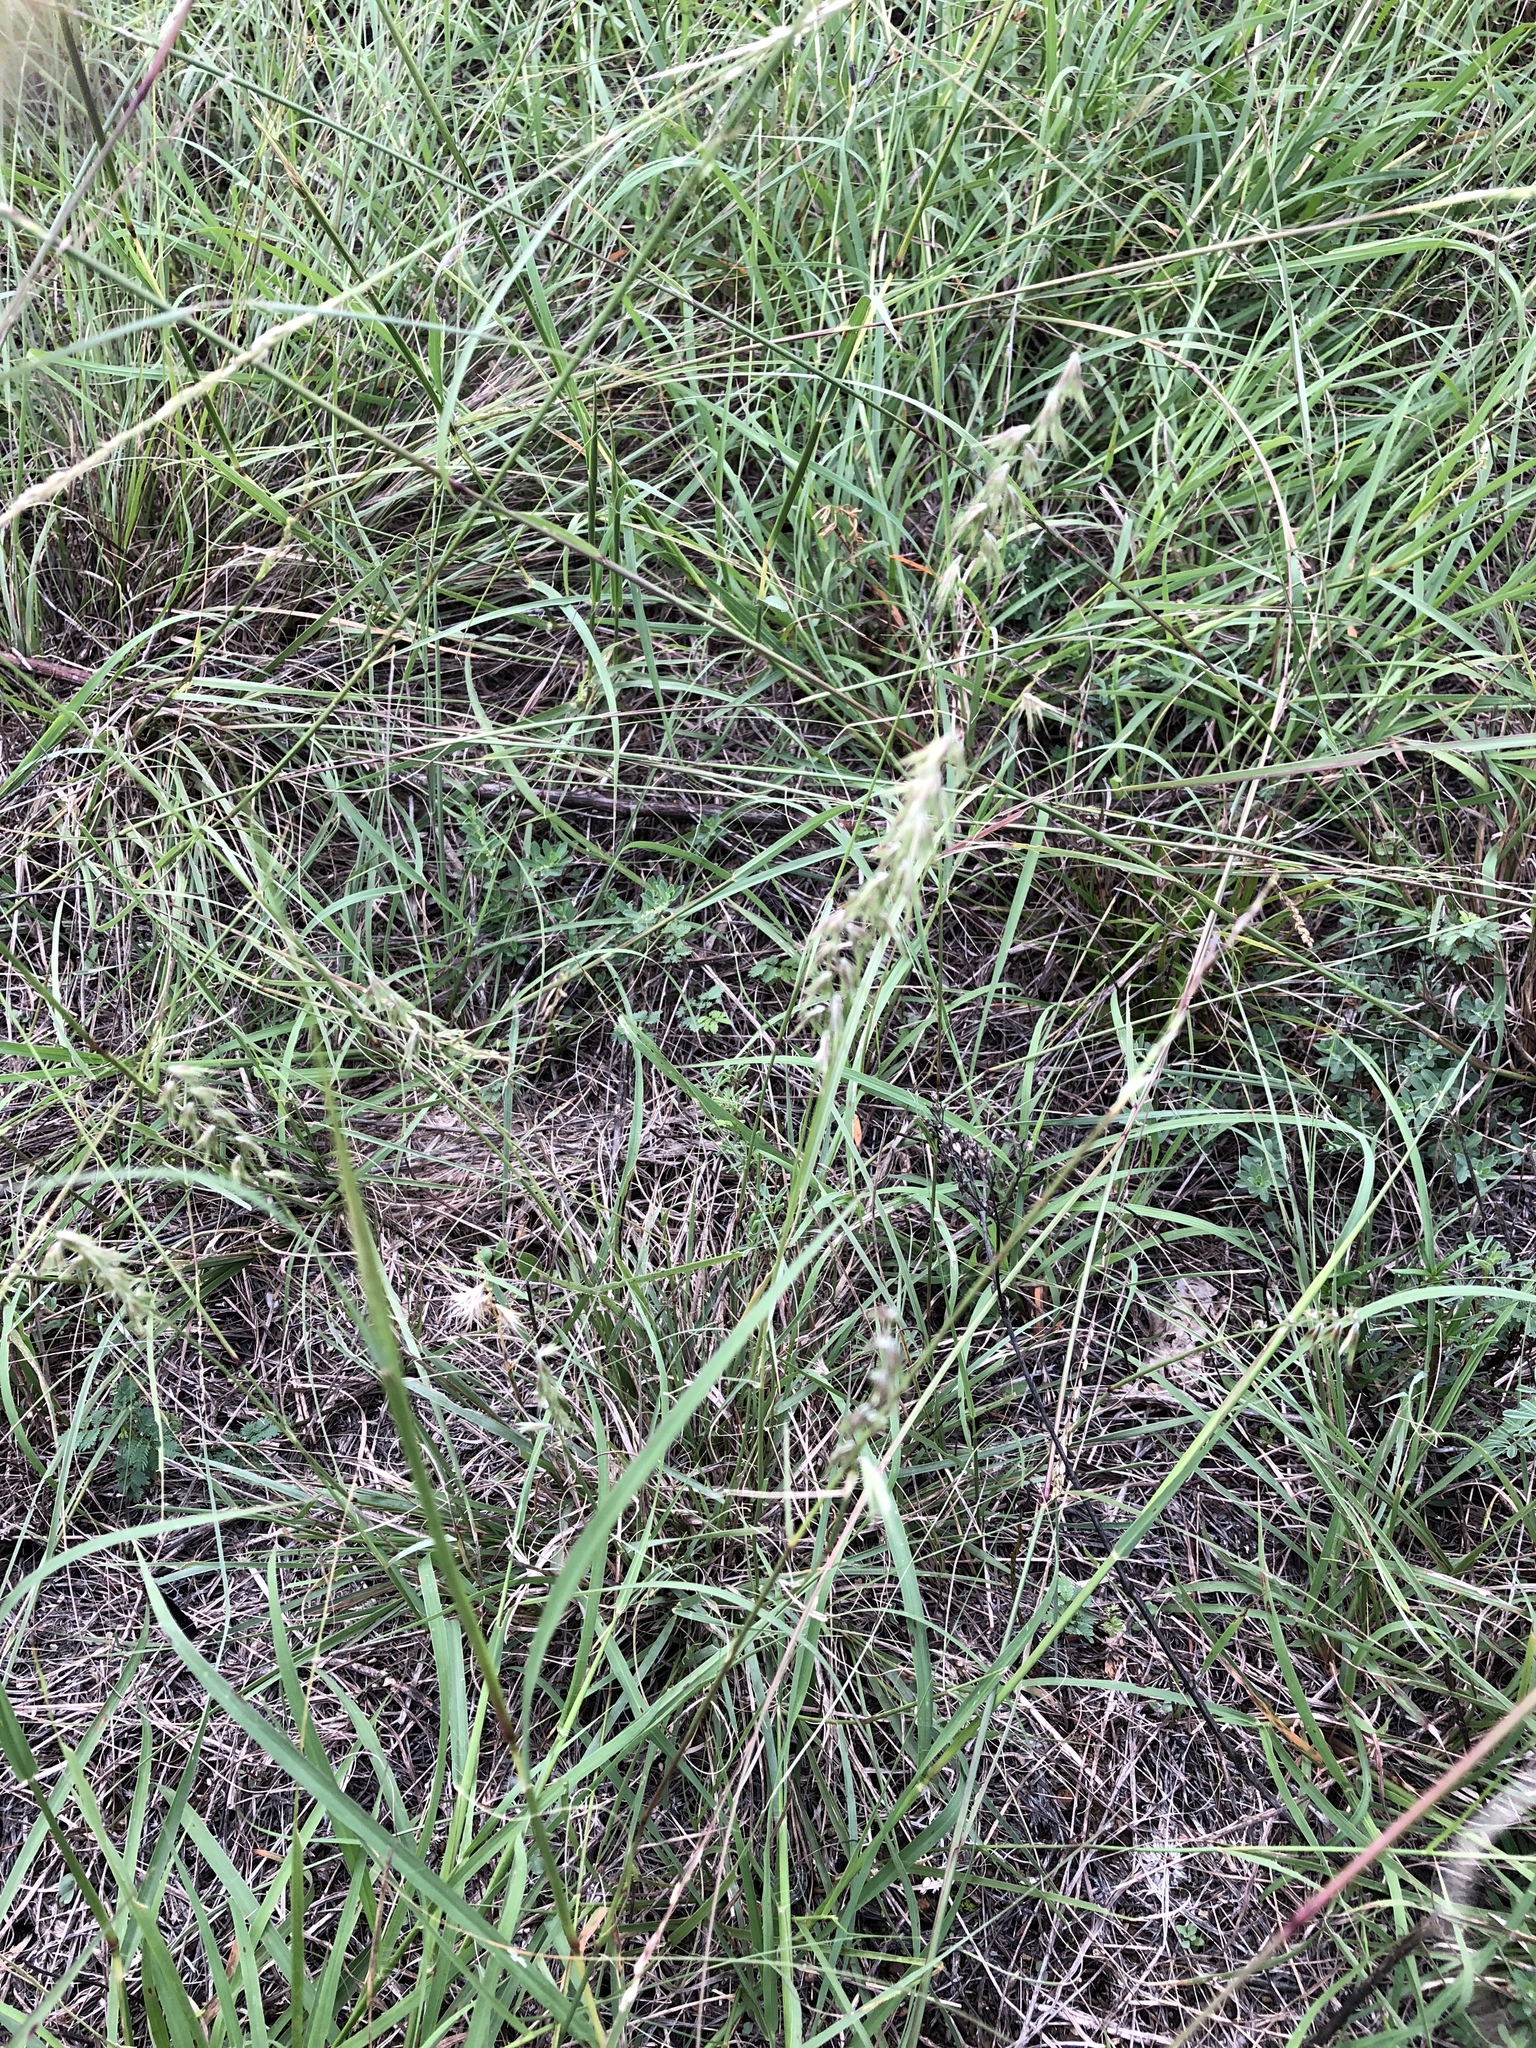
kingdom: Plantae
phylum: Tracheophyta
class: Liliopsida
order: Poales
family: Poaceae
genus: Bouteloua
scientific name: Bouteloua rigidiseta
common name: Texas grama
